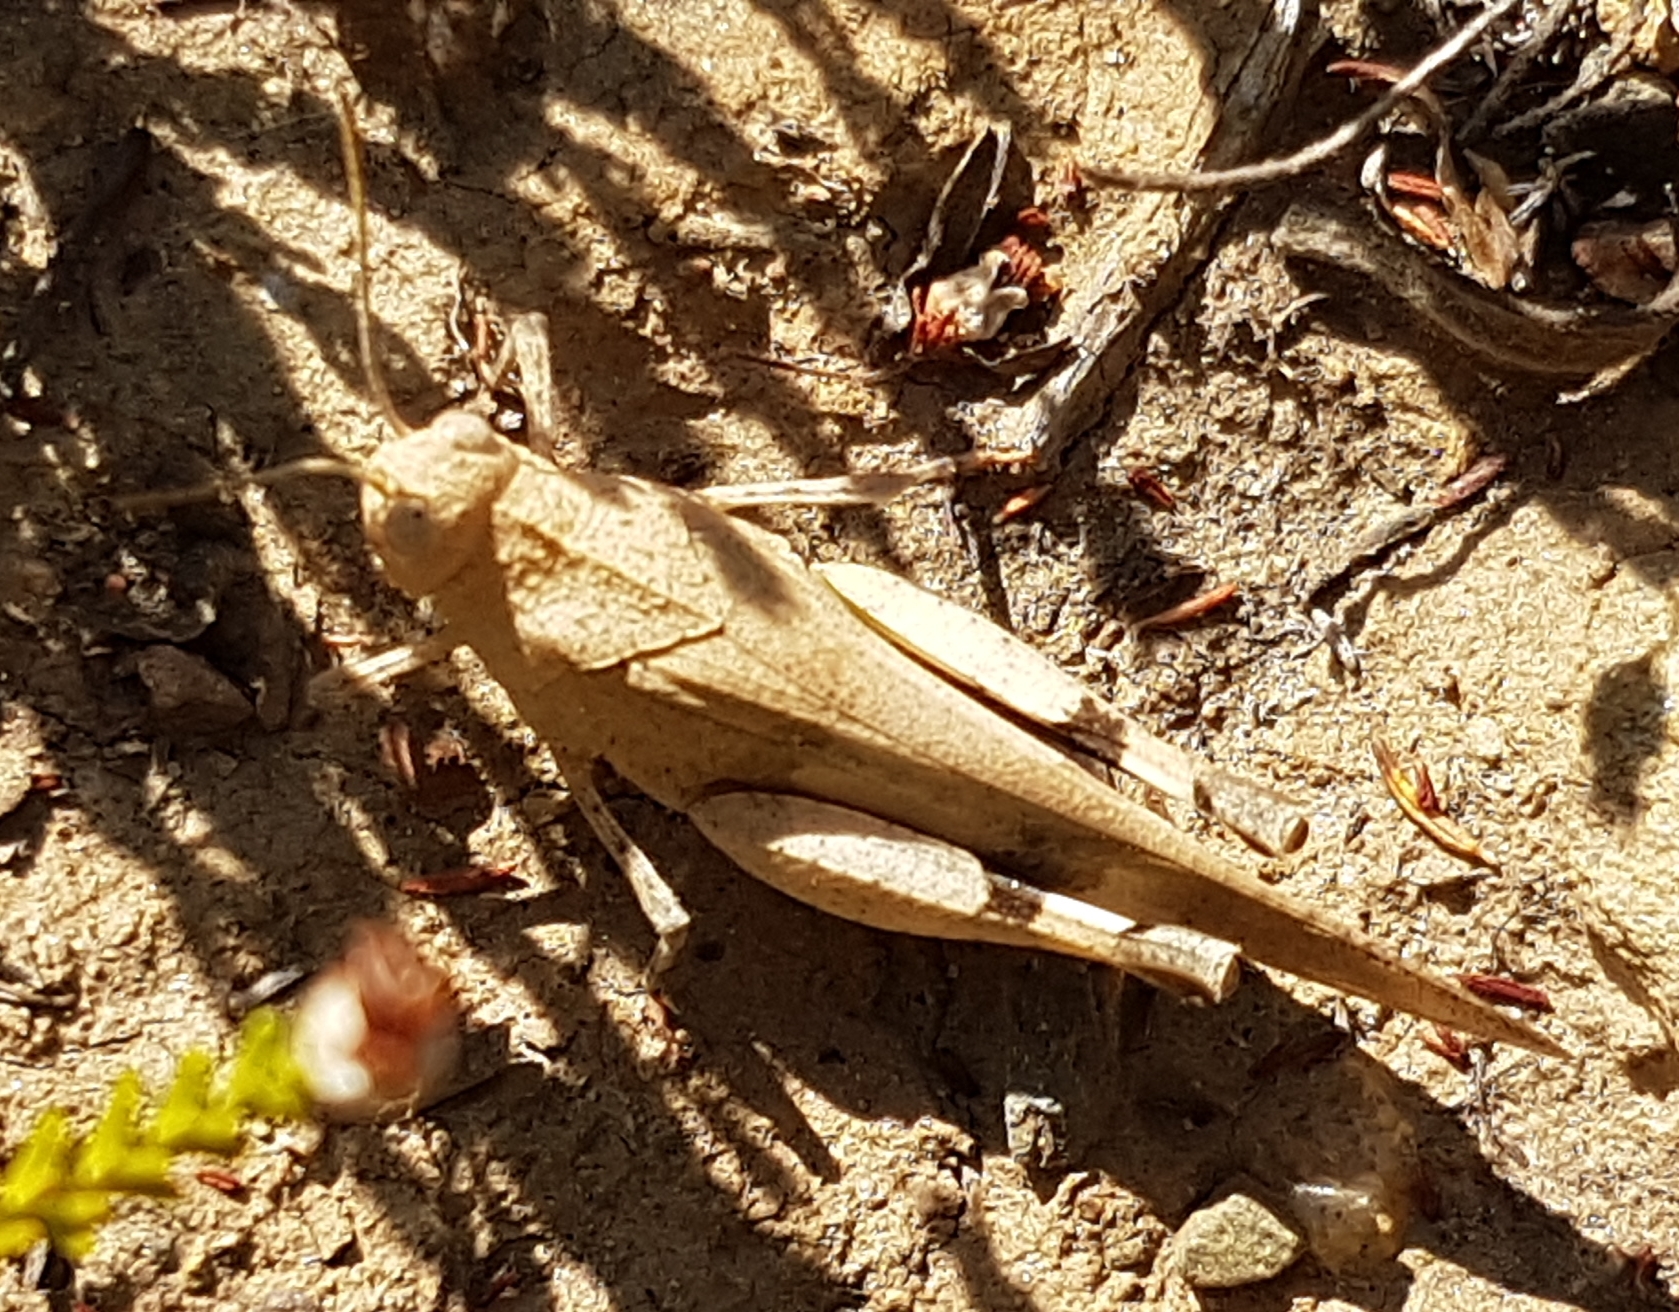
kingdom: Animalia
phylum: Arthropoda
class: Insecta
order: Orthoptera
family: Acrididae
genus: Oedipoda
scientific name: Oedipoda caerulescens
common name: Blue-winged grasshopper
